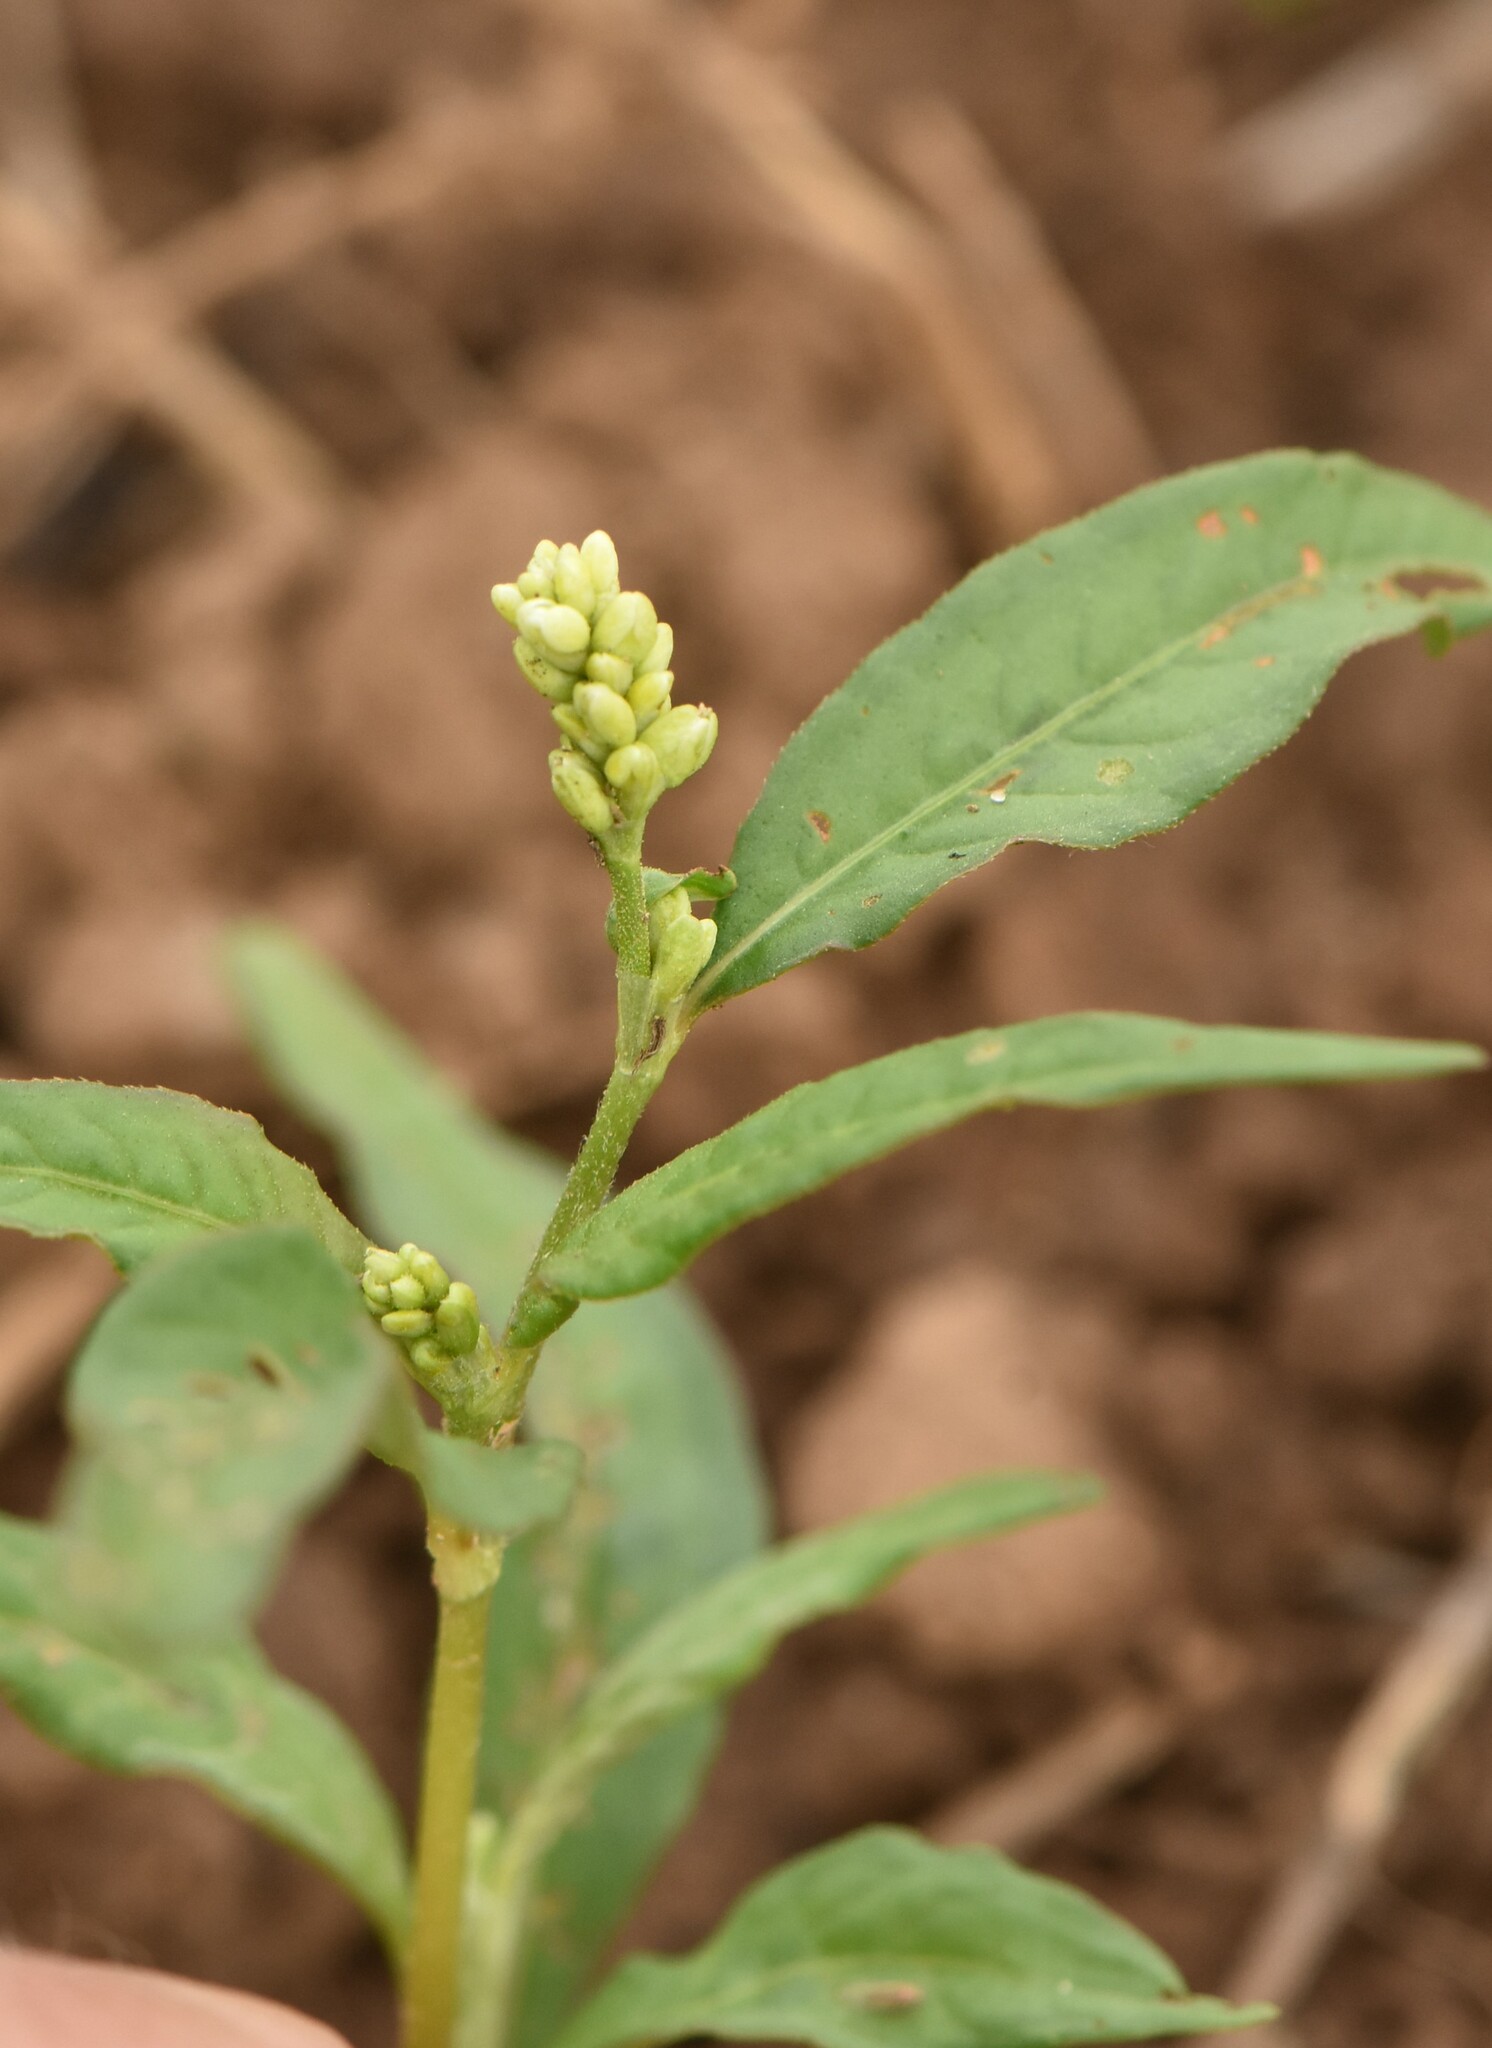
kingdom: Plantae
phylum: Tracheophyta
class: Magnoliopsida
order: Caryophyllales
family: Polygonaceae
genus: Persicaria
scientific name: Persicaria lapathifolia
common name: Curlytop knotweed
